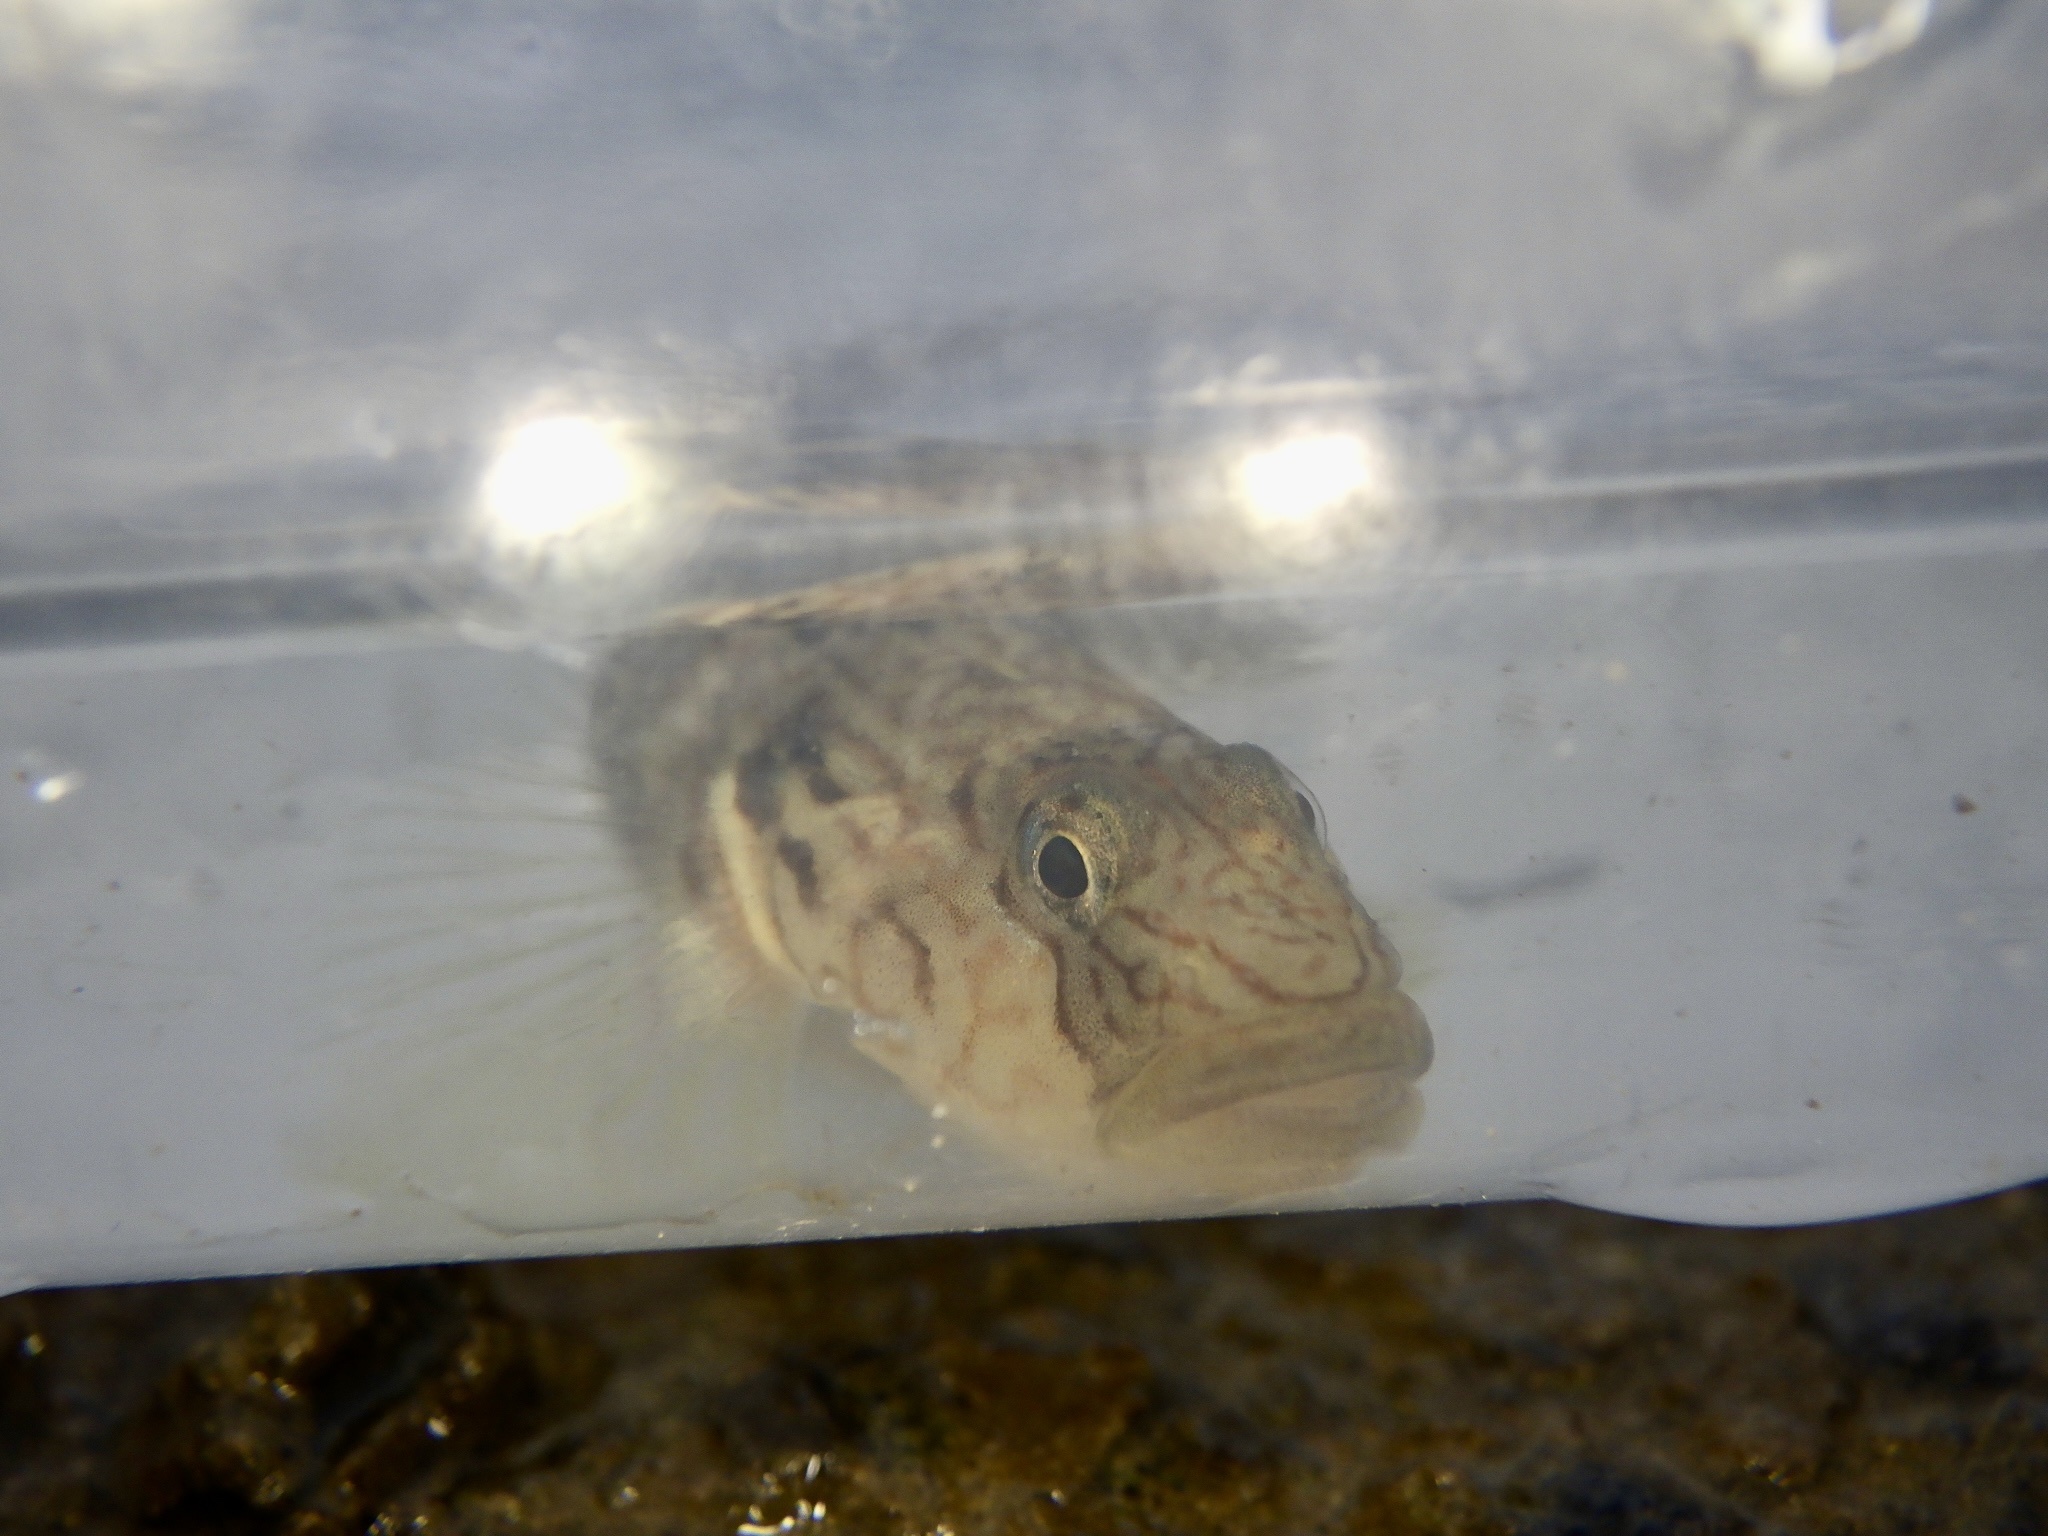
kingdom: Animalia
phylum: Chordata
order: Perciformes
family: Gobiidae
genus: Rhinogobius
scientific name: Rhinogobius nagoyae
